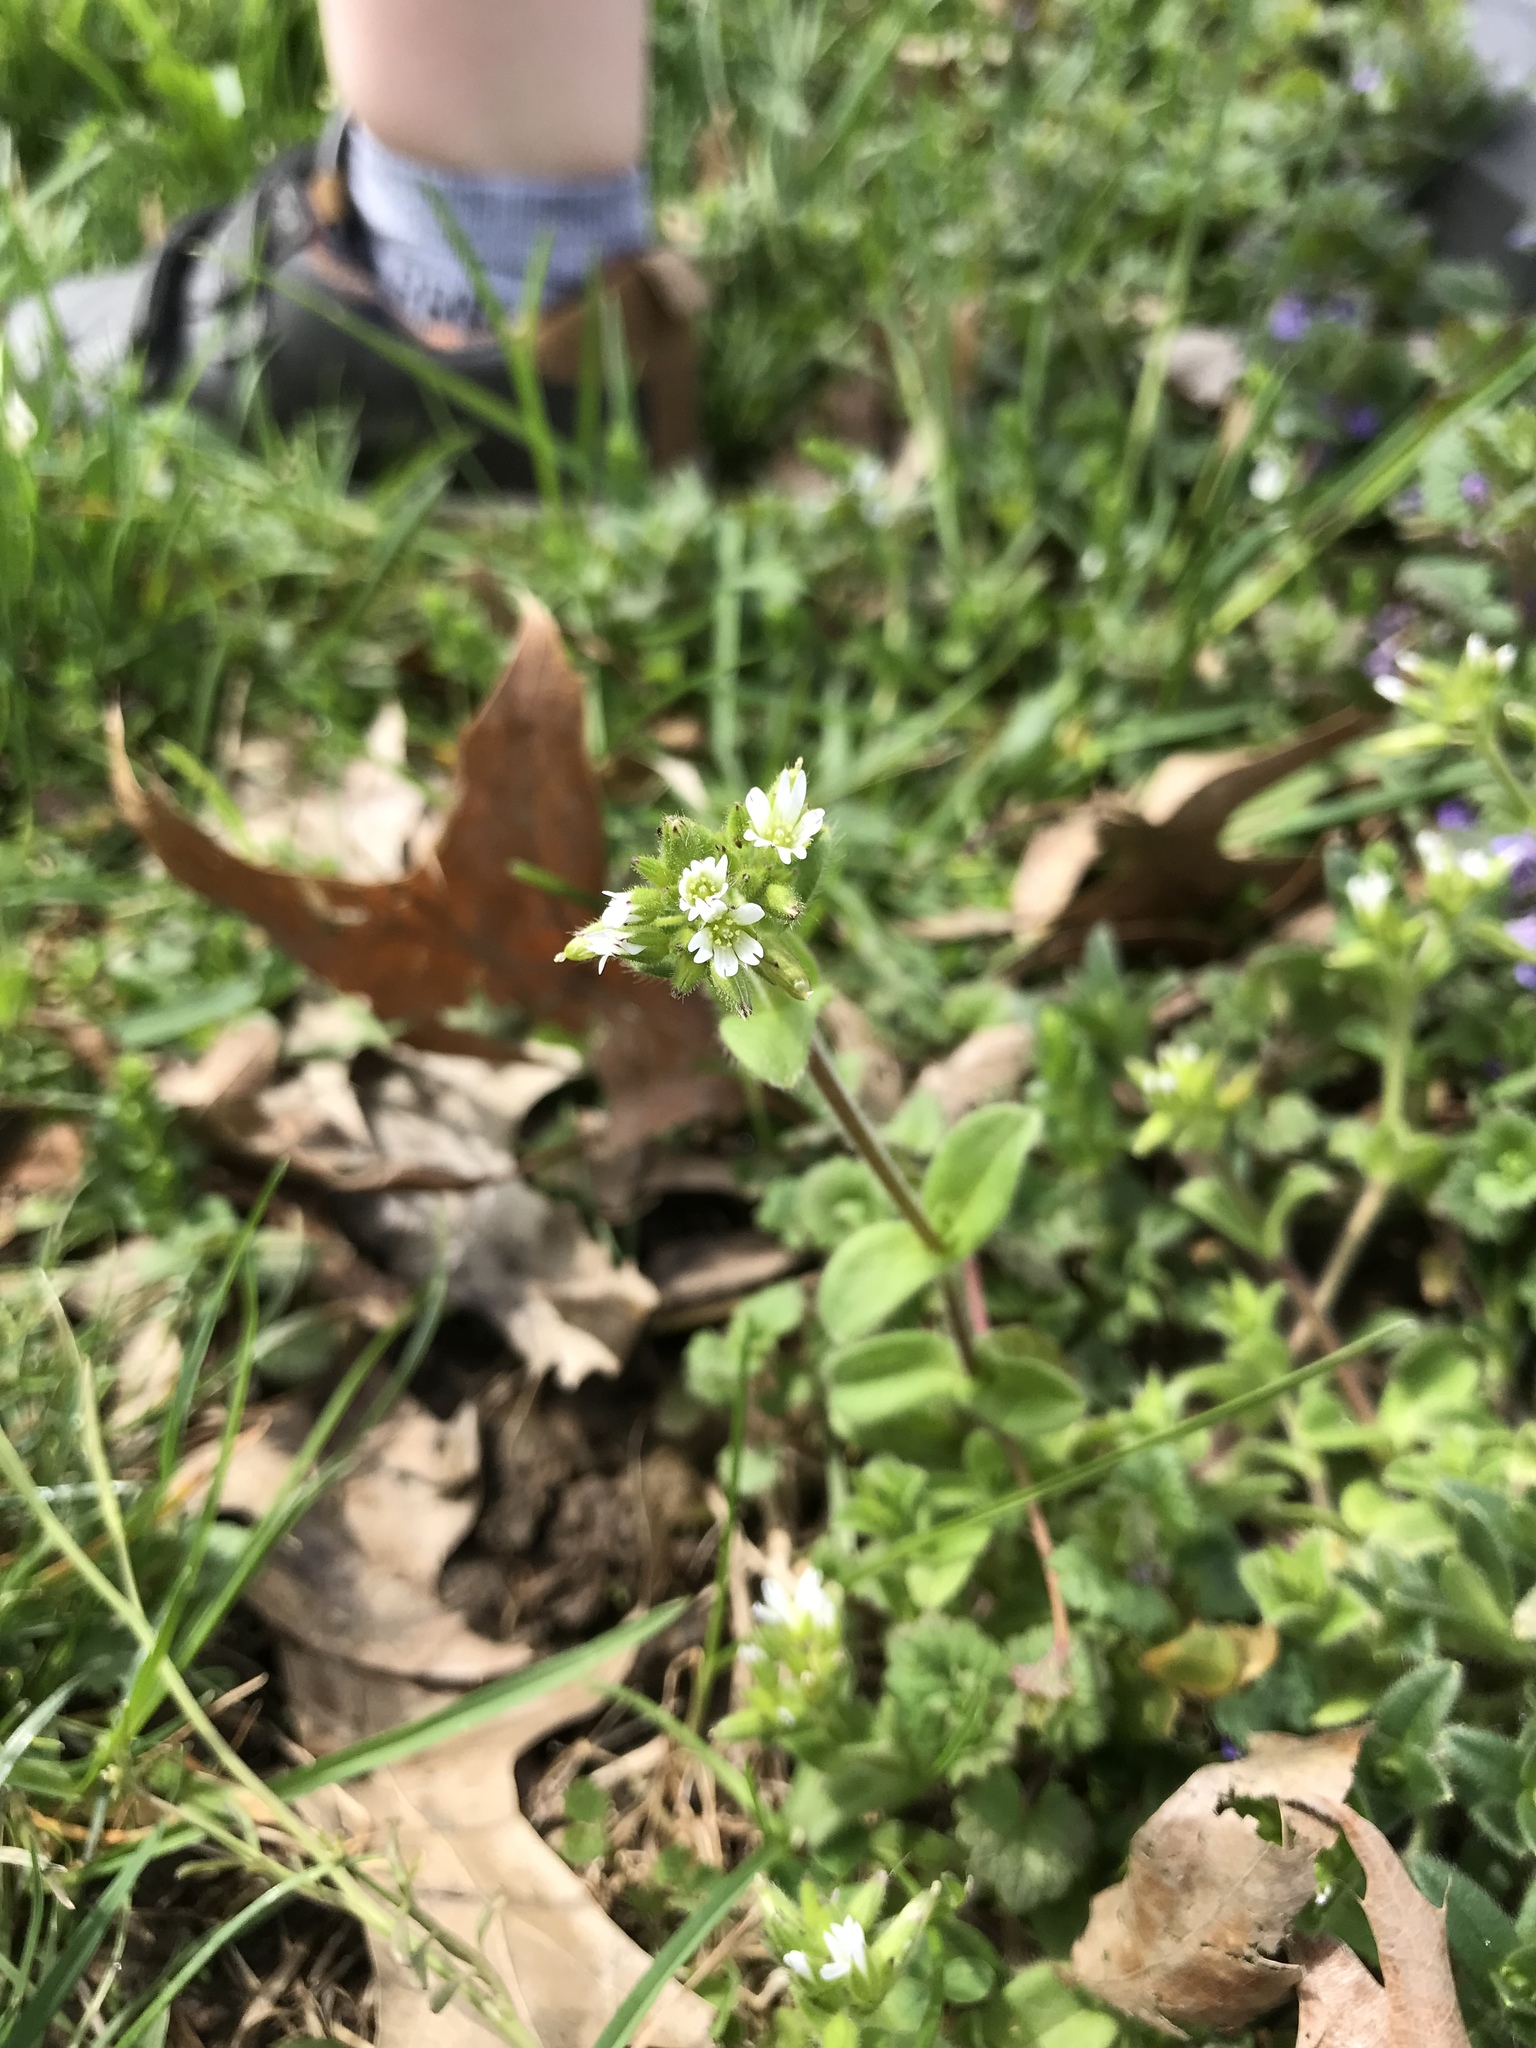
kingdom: Plantae
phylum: Tracheophyta
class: Magnoliopsida
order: Caryophyllales
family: Caryophyllaceae
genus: Cerastium
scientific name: Cerastium fontanum
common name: Common mouse-ear
